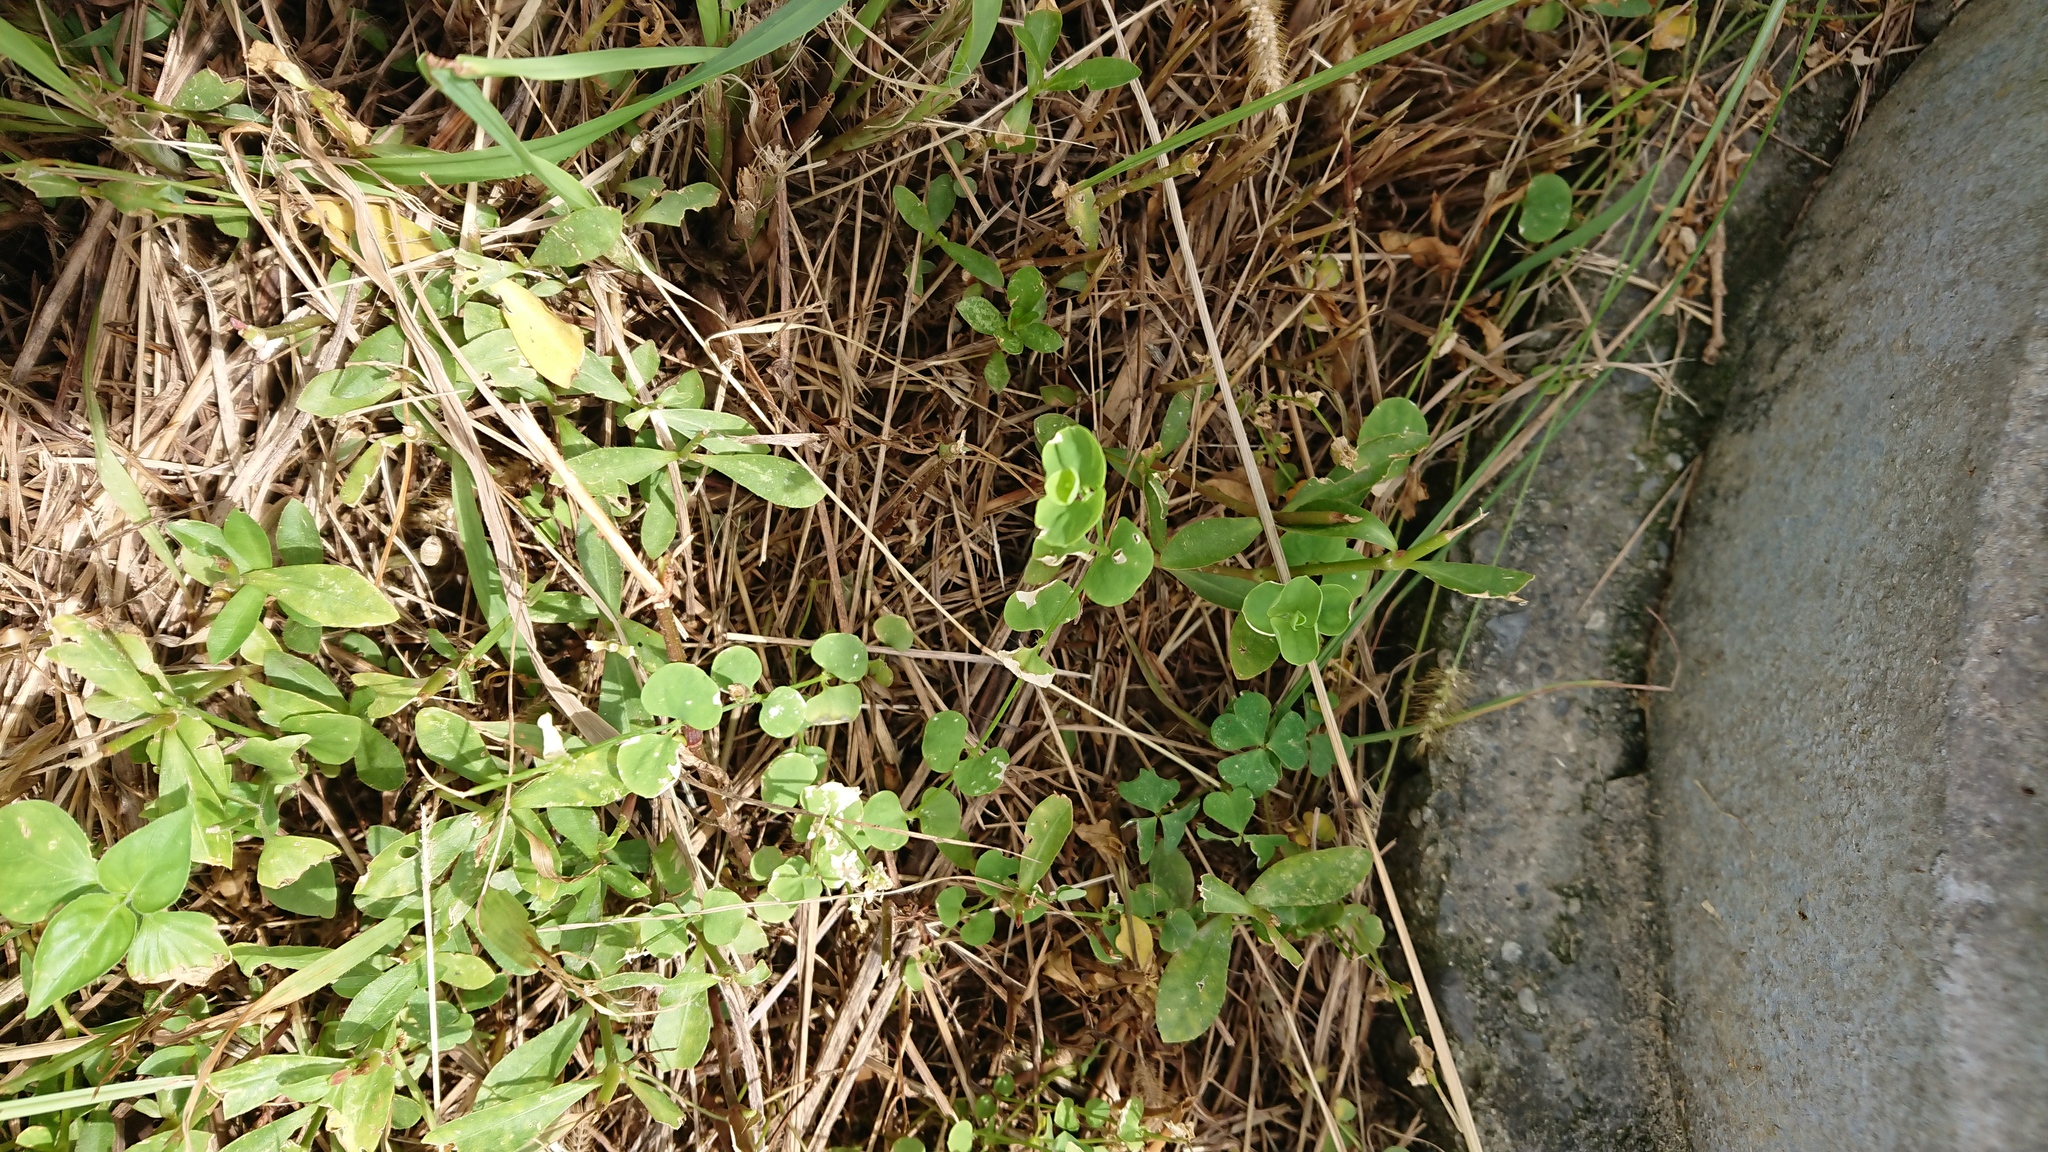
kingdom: Plantae
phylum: Tracheophyta
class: Magnoliopsida
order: Caryophyllales
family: Caryophyllaceae
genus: Drymaria
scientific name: Drymaria cordata
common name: Whitesnow
